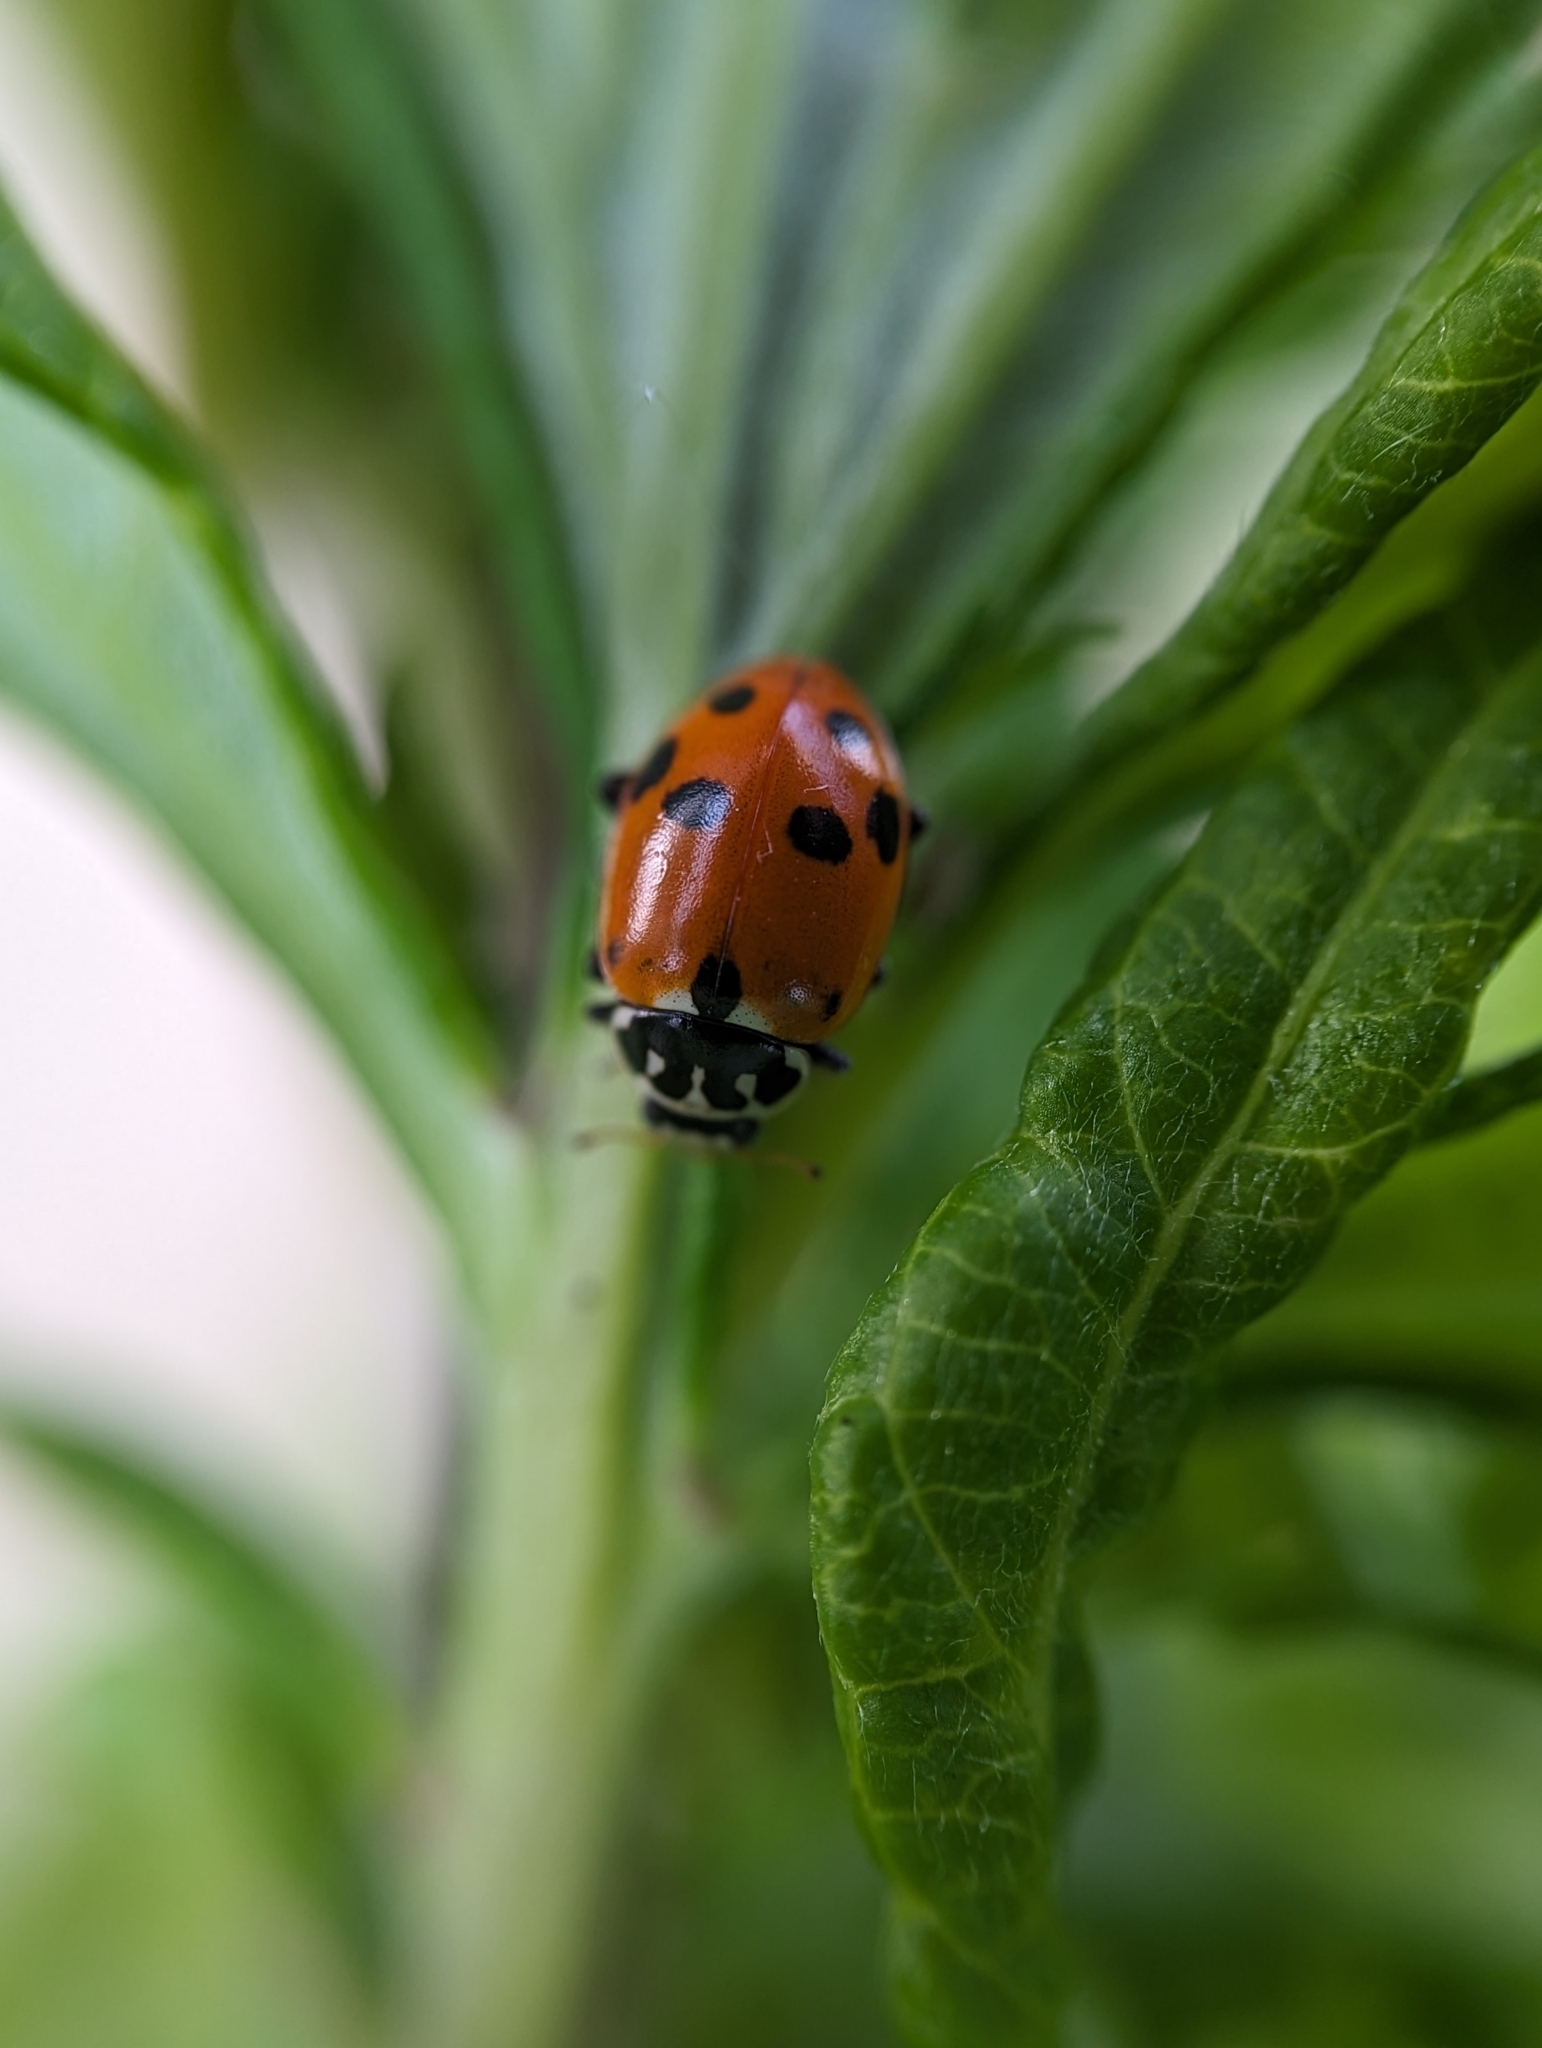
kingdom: Animalia
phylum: Arthropoda
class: Insecta
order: Coleoptera
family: Coccinellidae
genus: Hippodamia
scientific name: Hippodamia variegata
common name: Ladybird beetle
